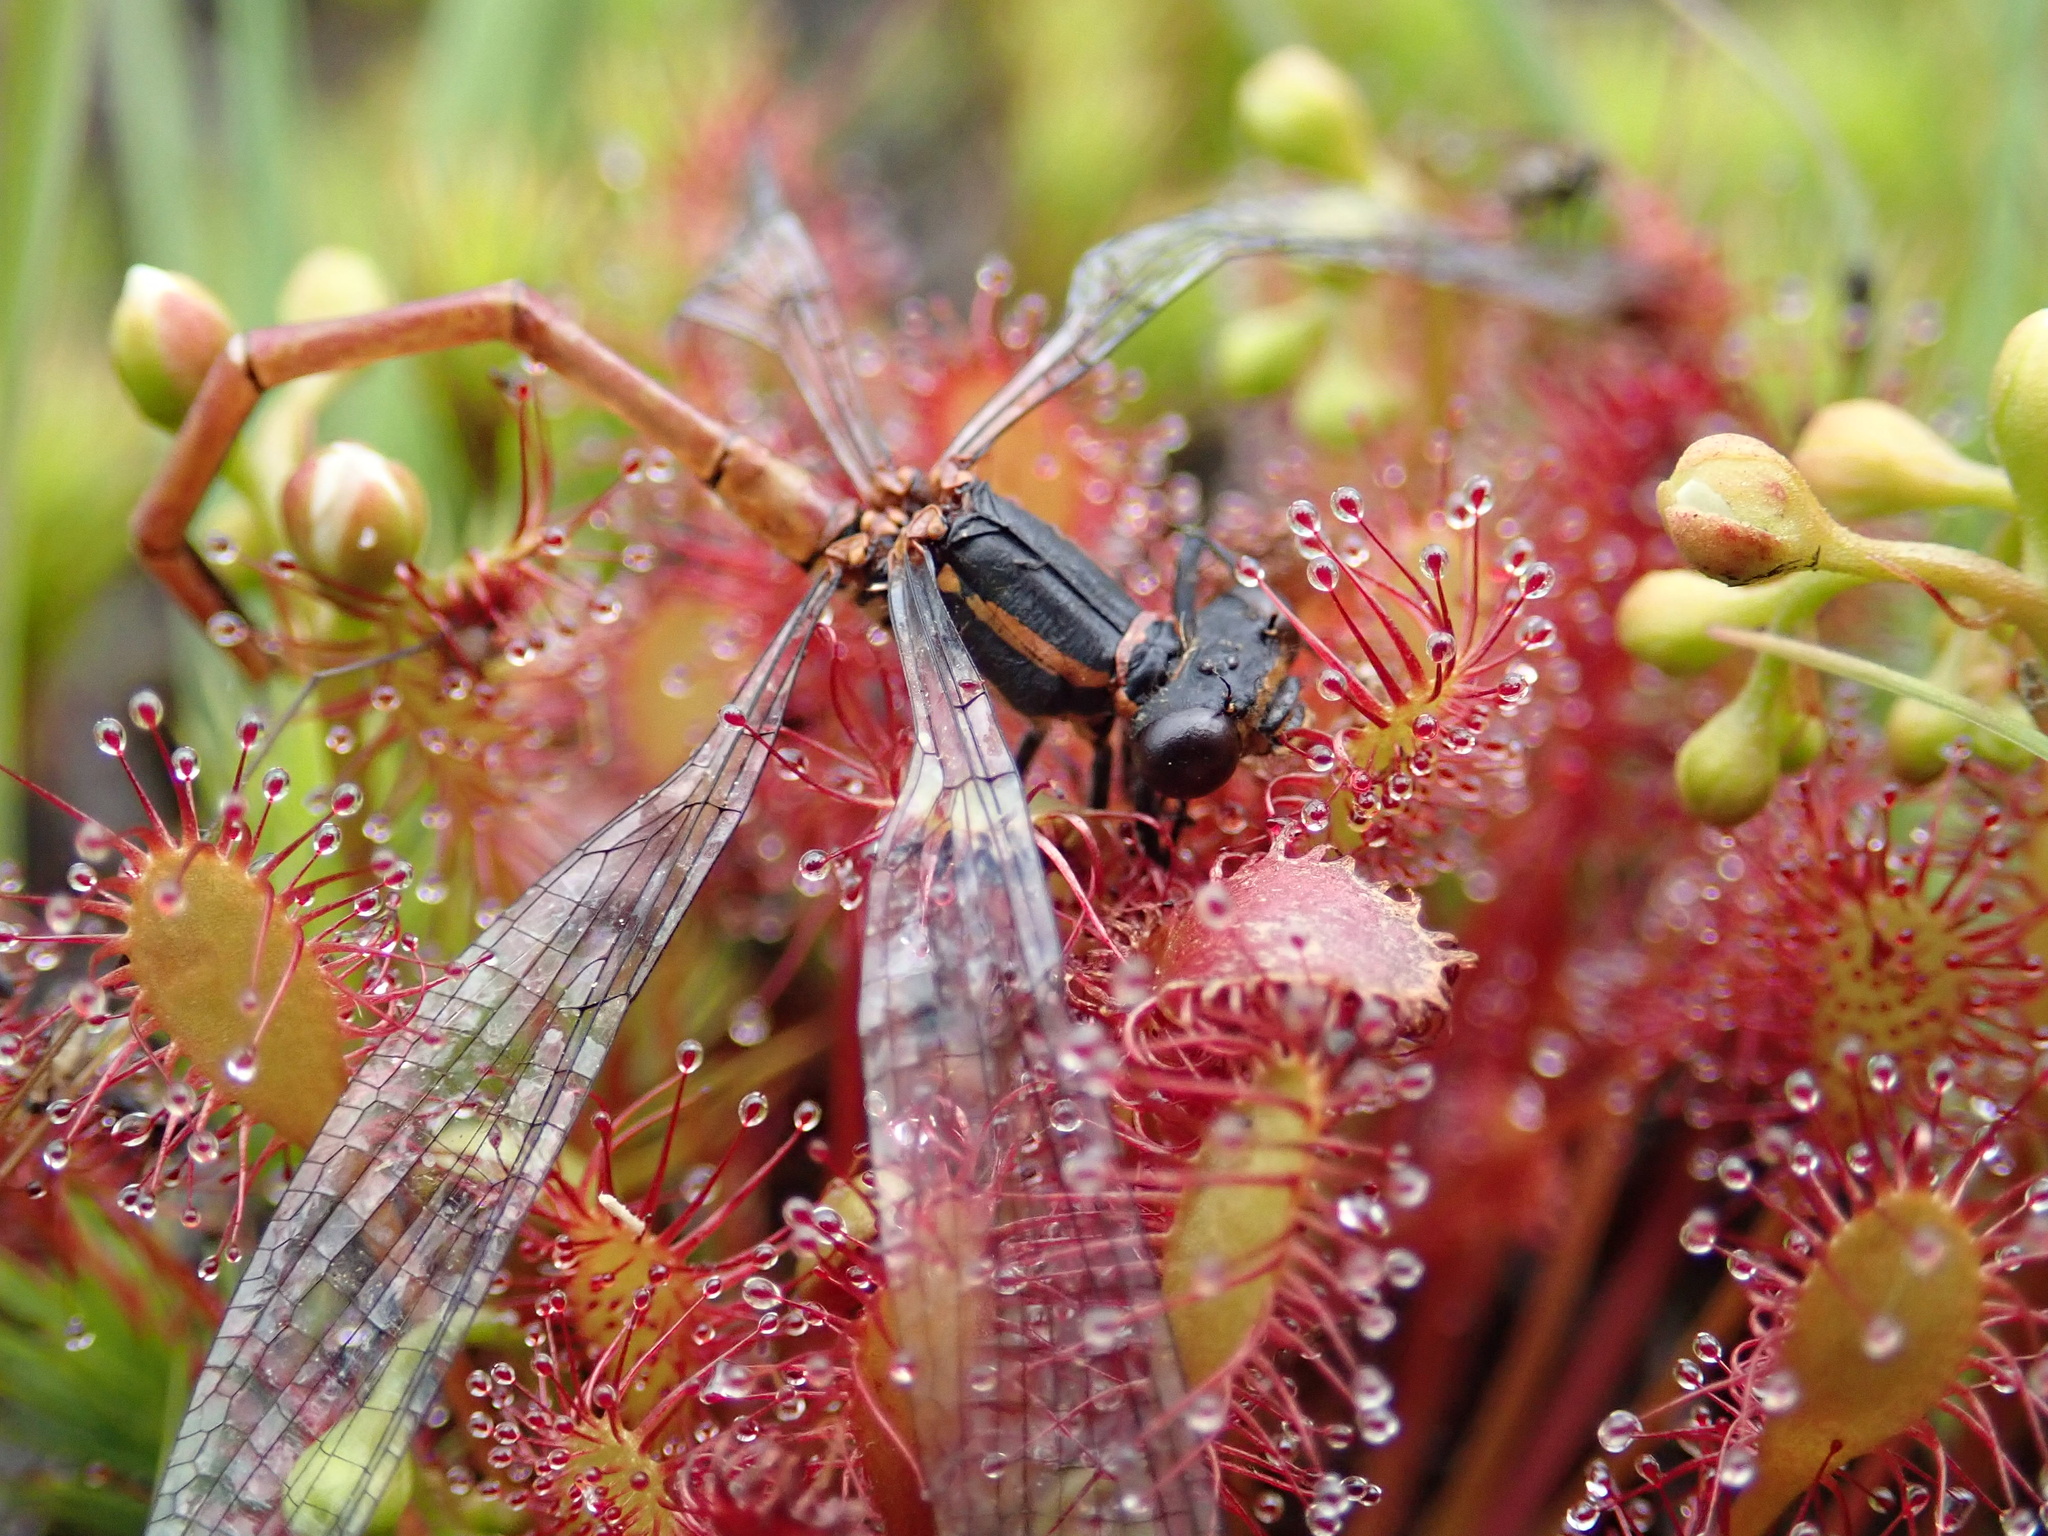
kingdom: Plantae
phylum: Tracheophyta
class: Magnoliopsida
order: Caryophyllales
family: Droseraceae
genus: Drosera
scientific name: Drosera intermedia
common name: Oblong-leaved sundew
